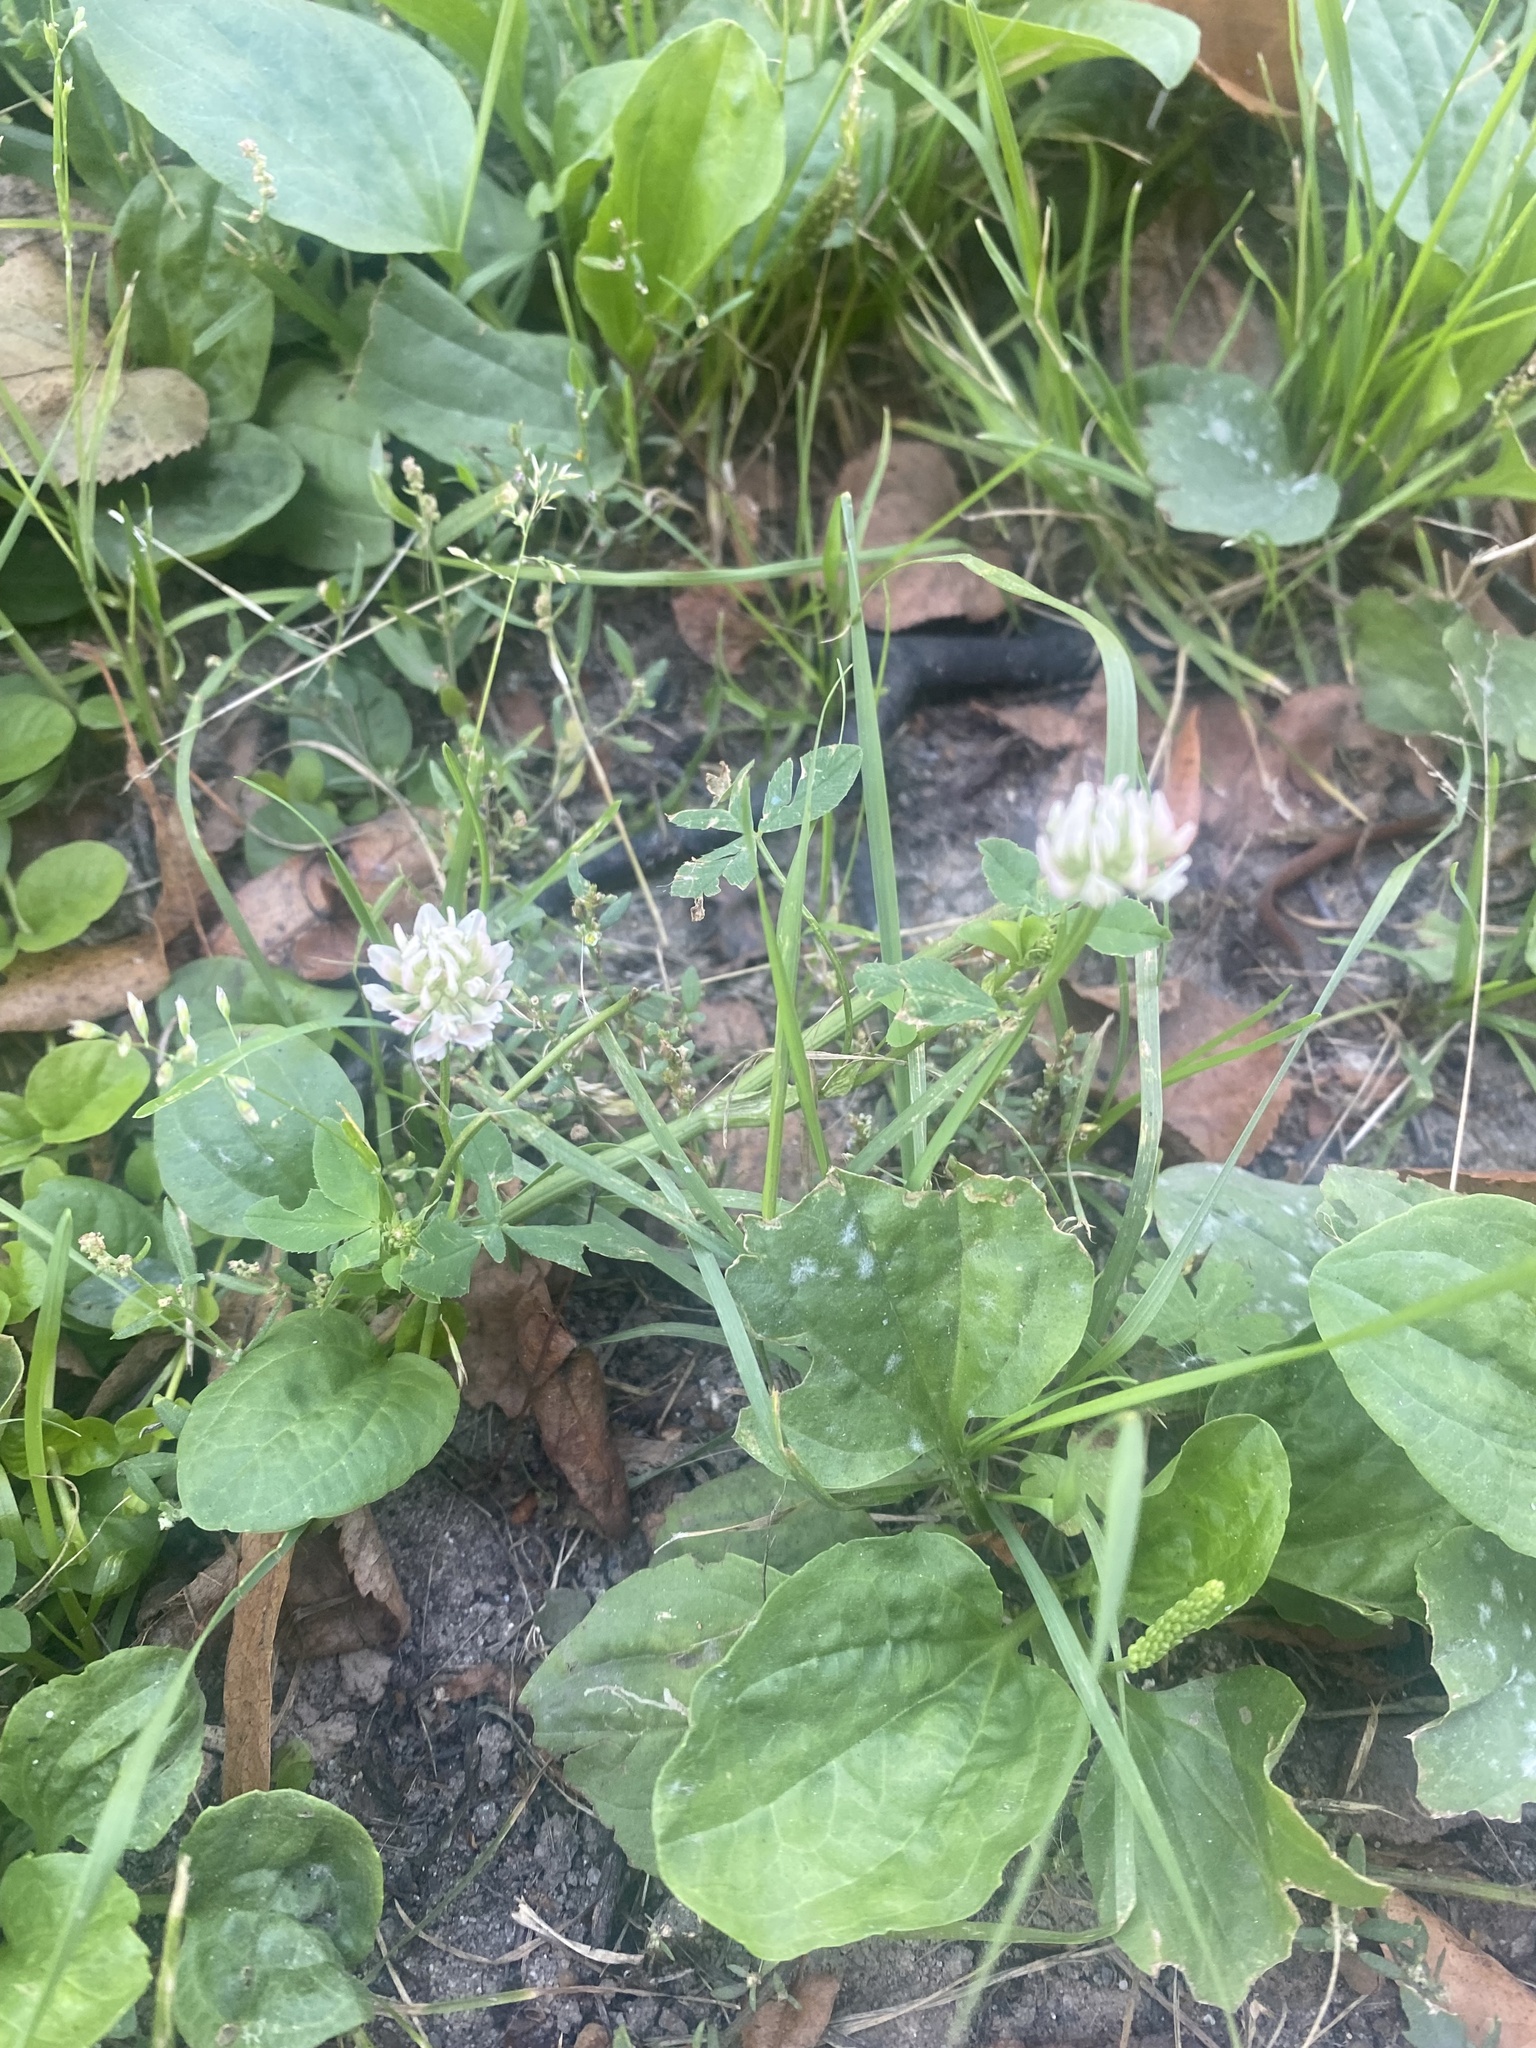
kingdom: Plantae
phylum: Tracheophyta
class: Magnoliopsida
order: Fabales
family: Fabaceae
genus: Trifolium
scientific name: Trifolium hybridum
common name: Alsike clover
